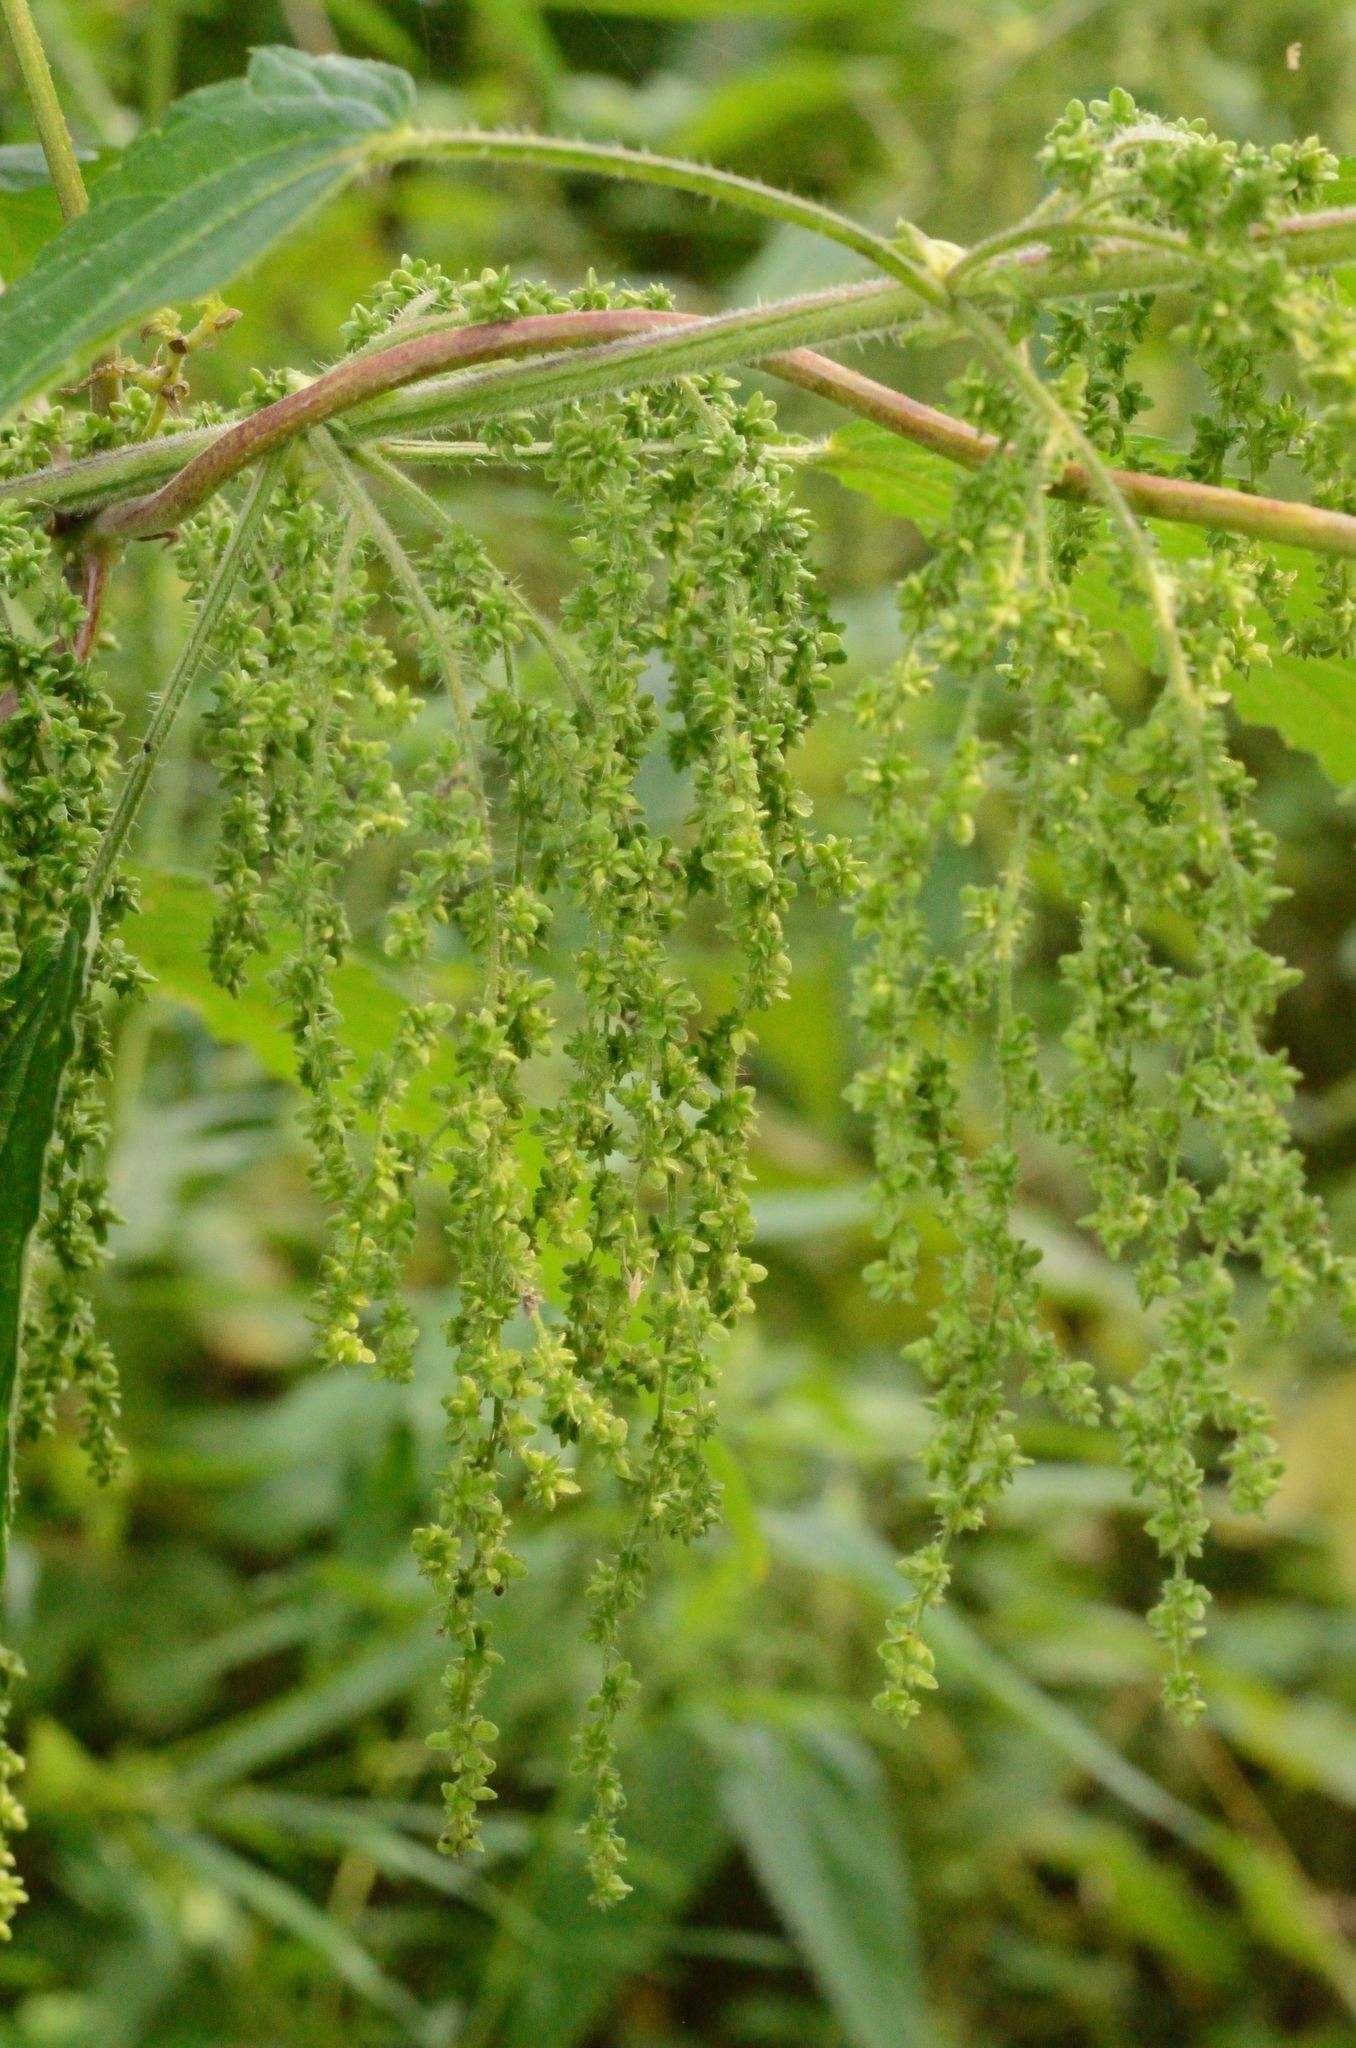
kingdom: Plantae
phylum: Tracheophyta
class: Magnoliopsida
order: Rosales
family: Urticaceae
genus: Urtica
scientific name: Urtica dioica
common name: Common nettle
